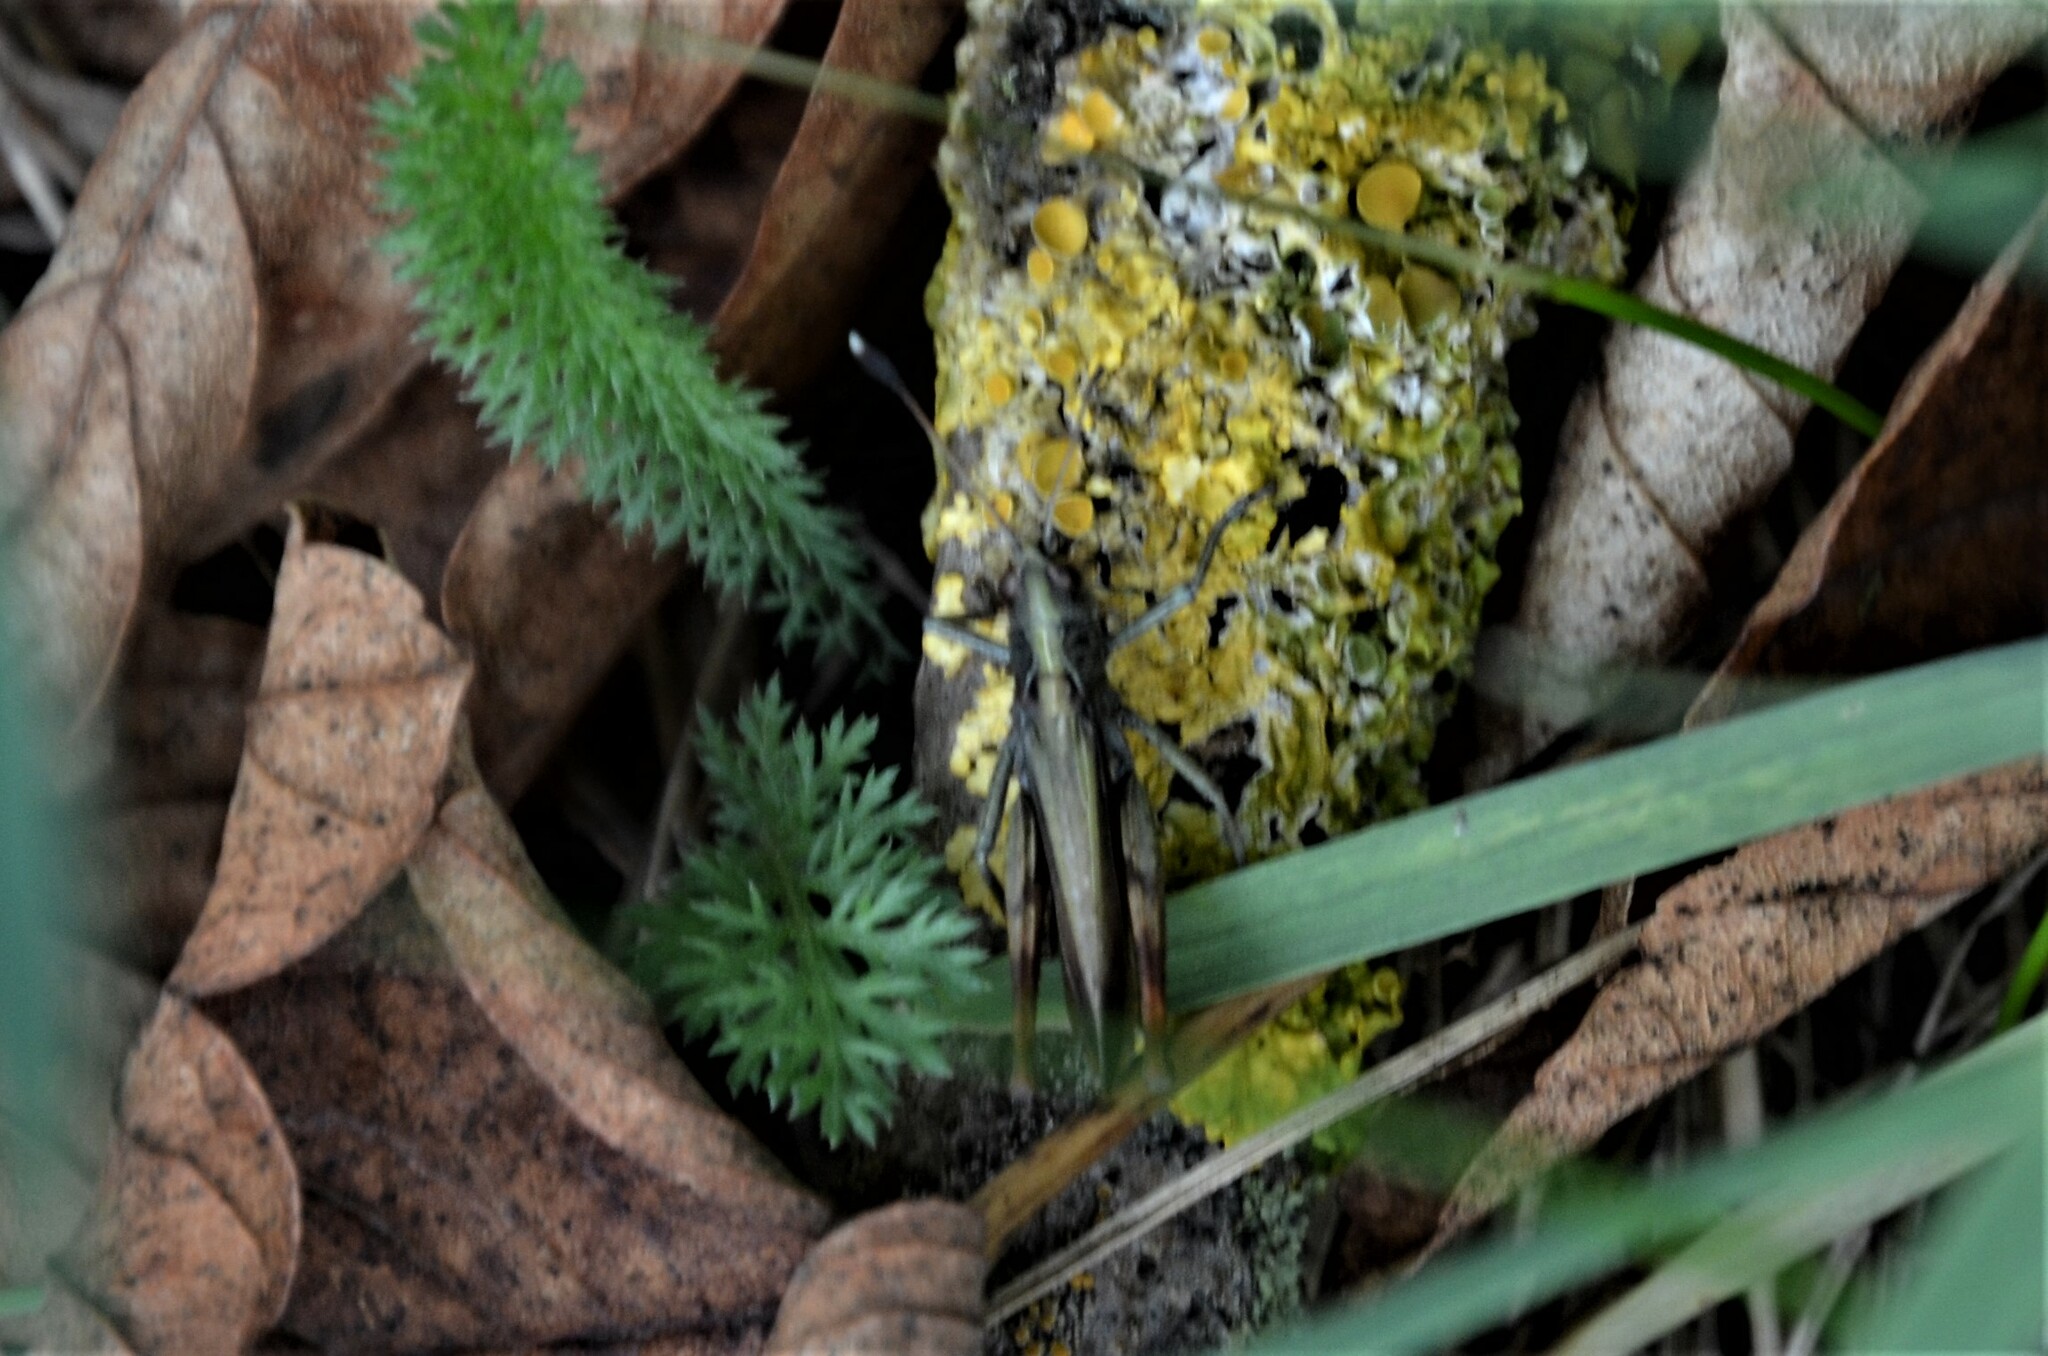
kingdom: Animalia
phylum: Arthropoda
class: Insecta
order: Orthoptera
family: Acrididae
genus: Gomphocerippus
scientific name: Gomphocerippus rufus
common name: Rufous grasshopper
